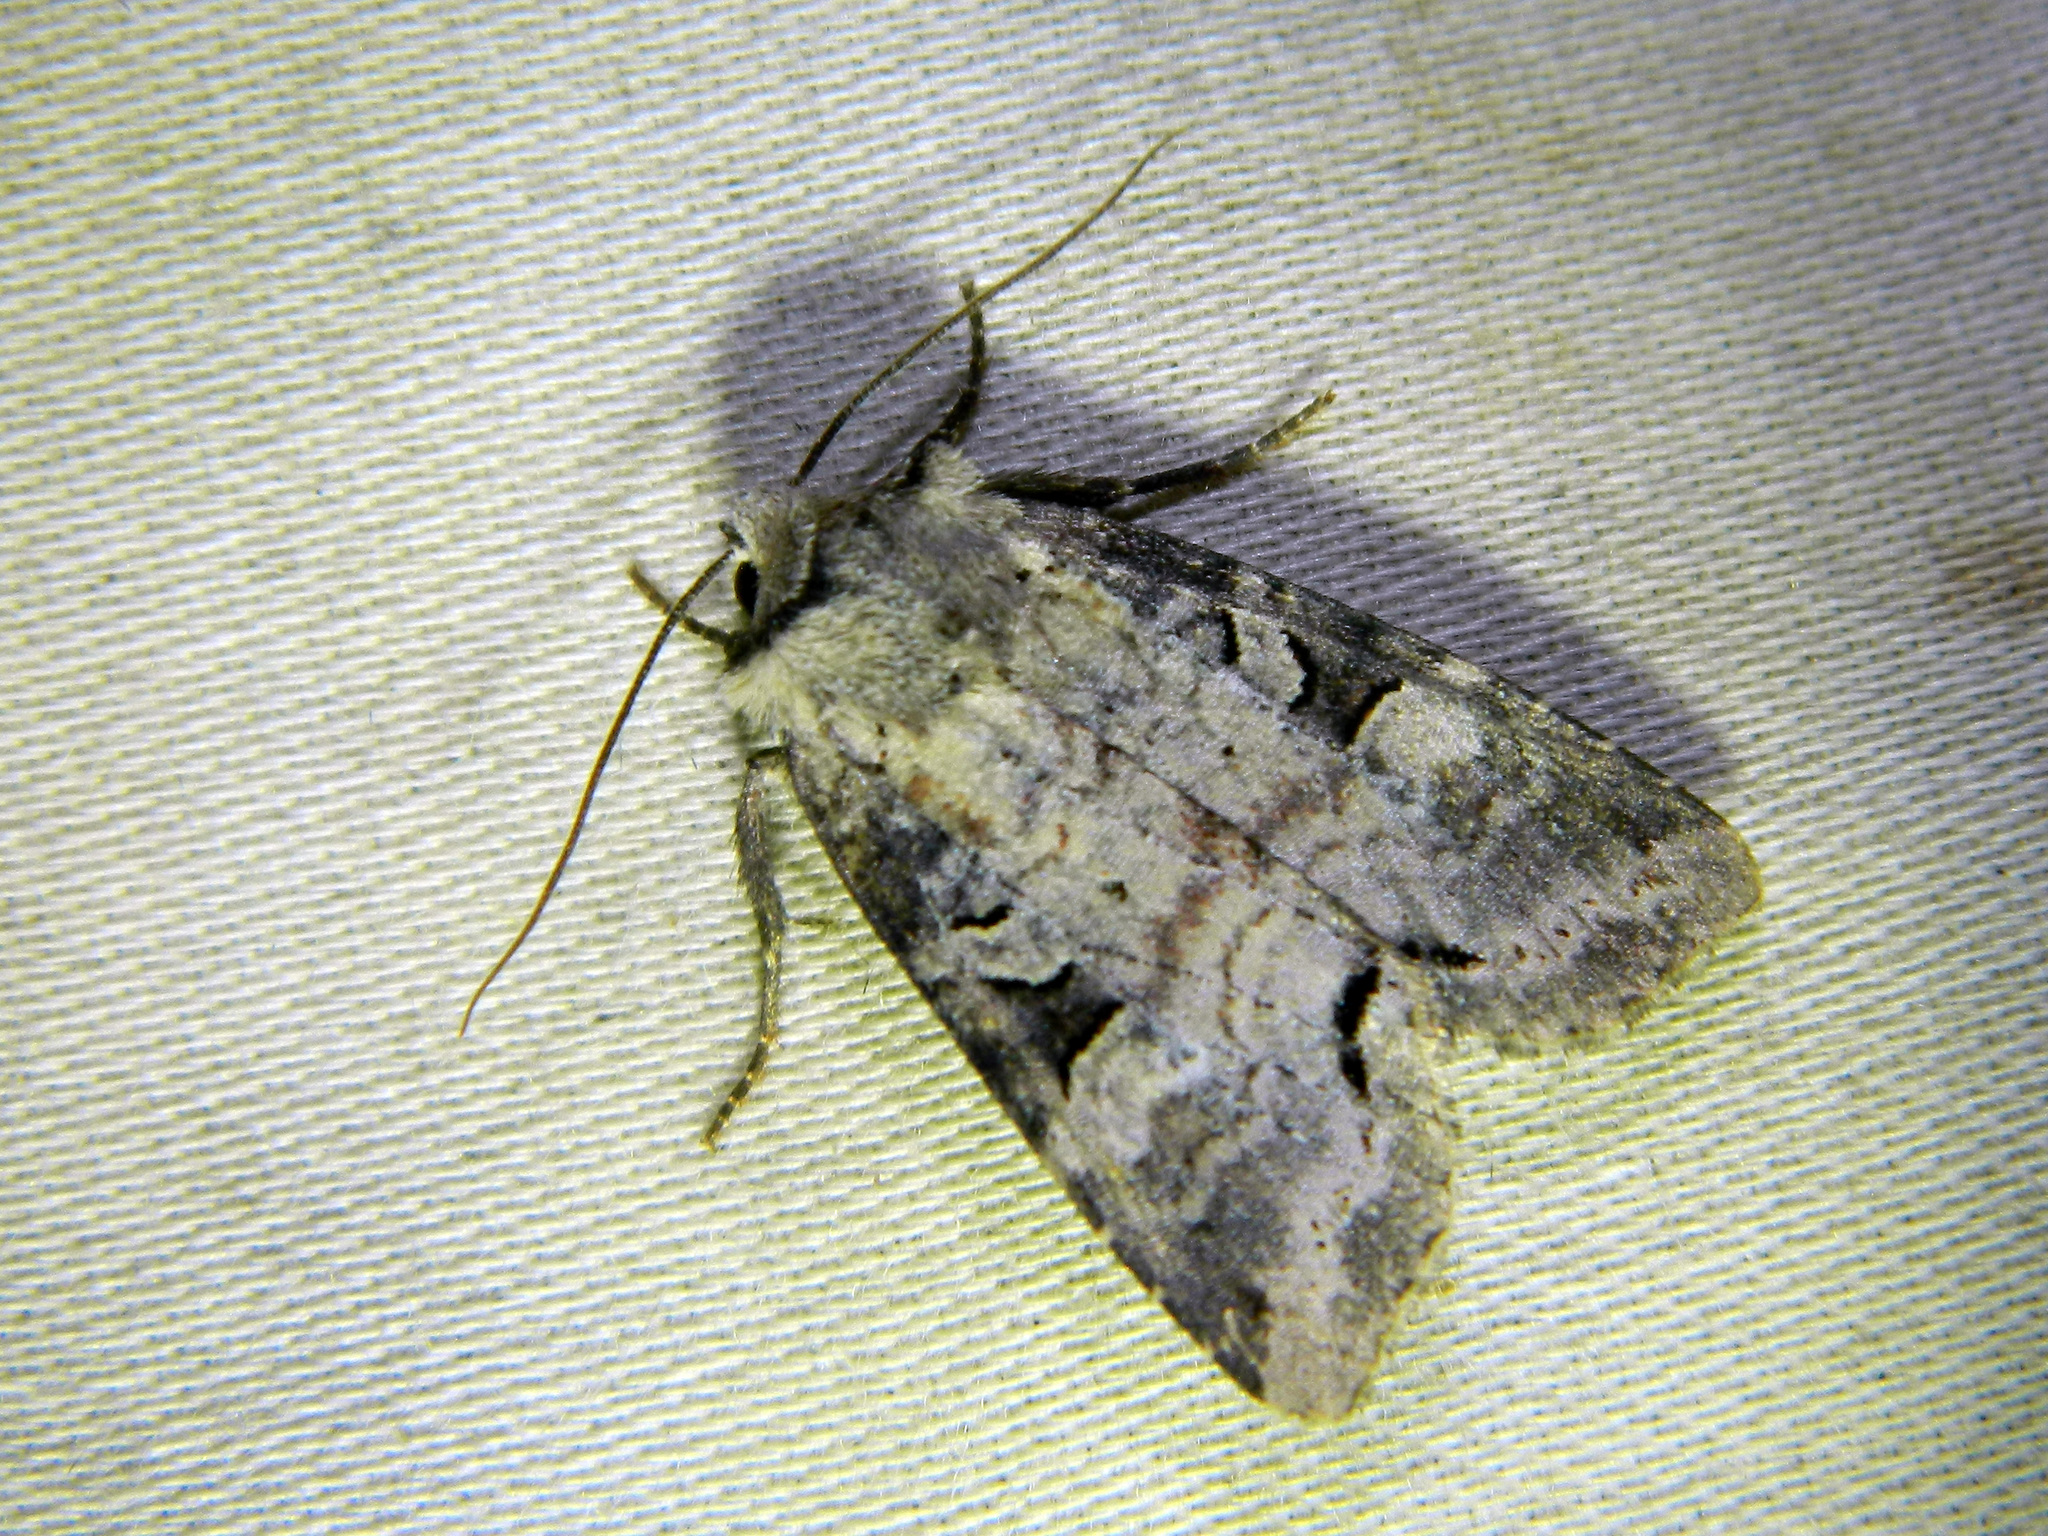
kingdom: Animalia
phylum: Arthropoda
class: Insecta
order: Lepidoptera
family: Noctuidae
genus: Hillia
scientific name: Hillia iris
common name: Iris rover moth
